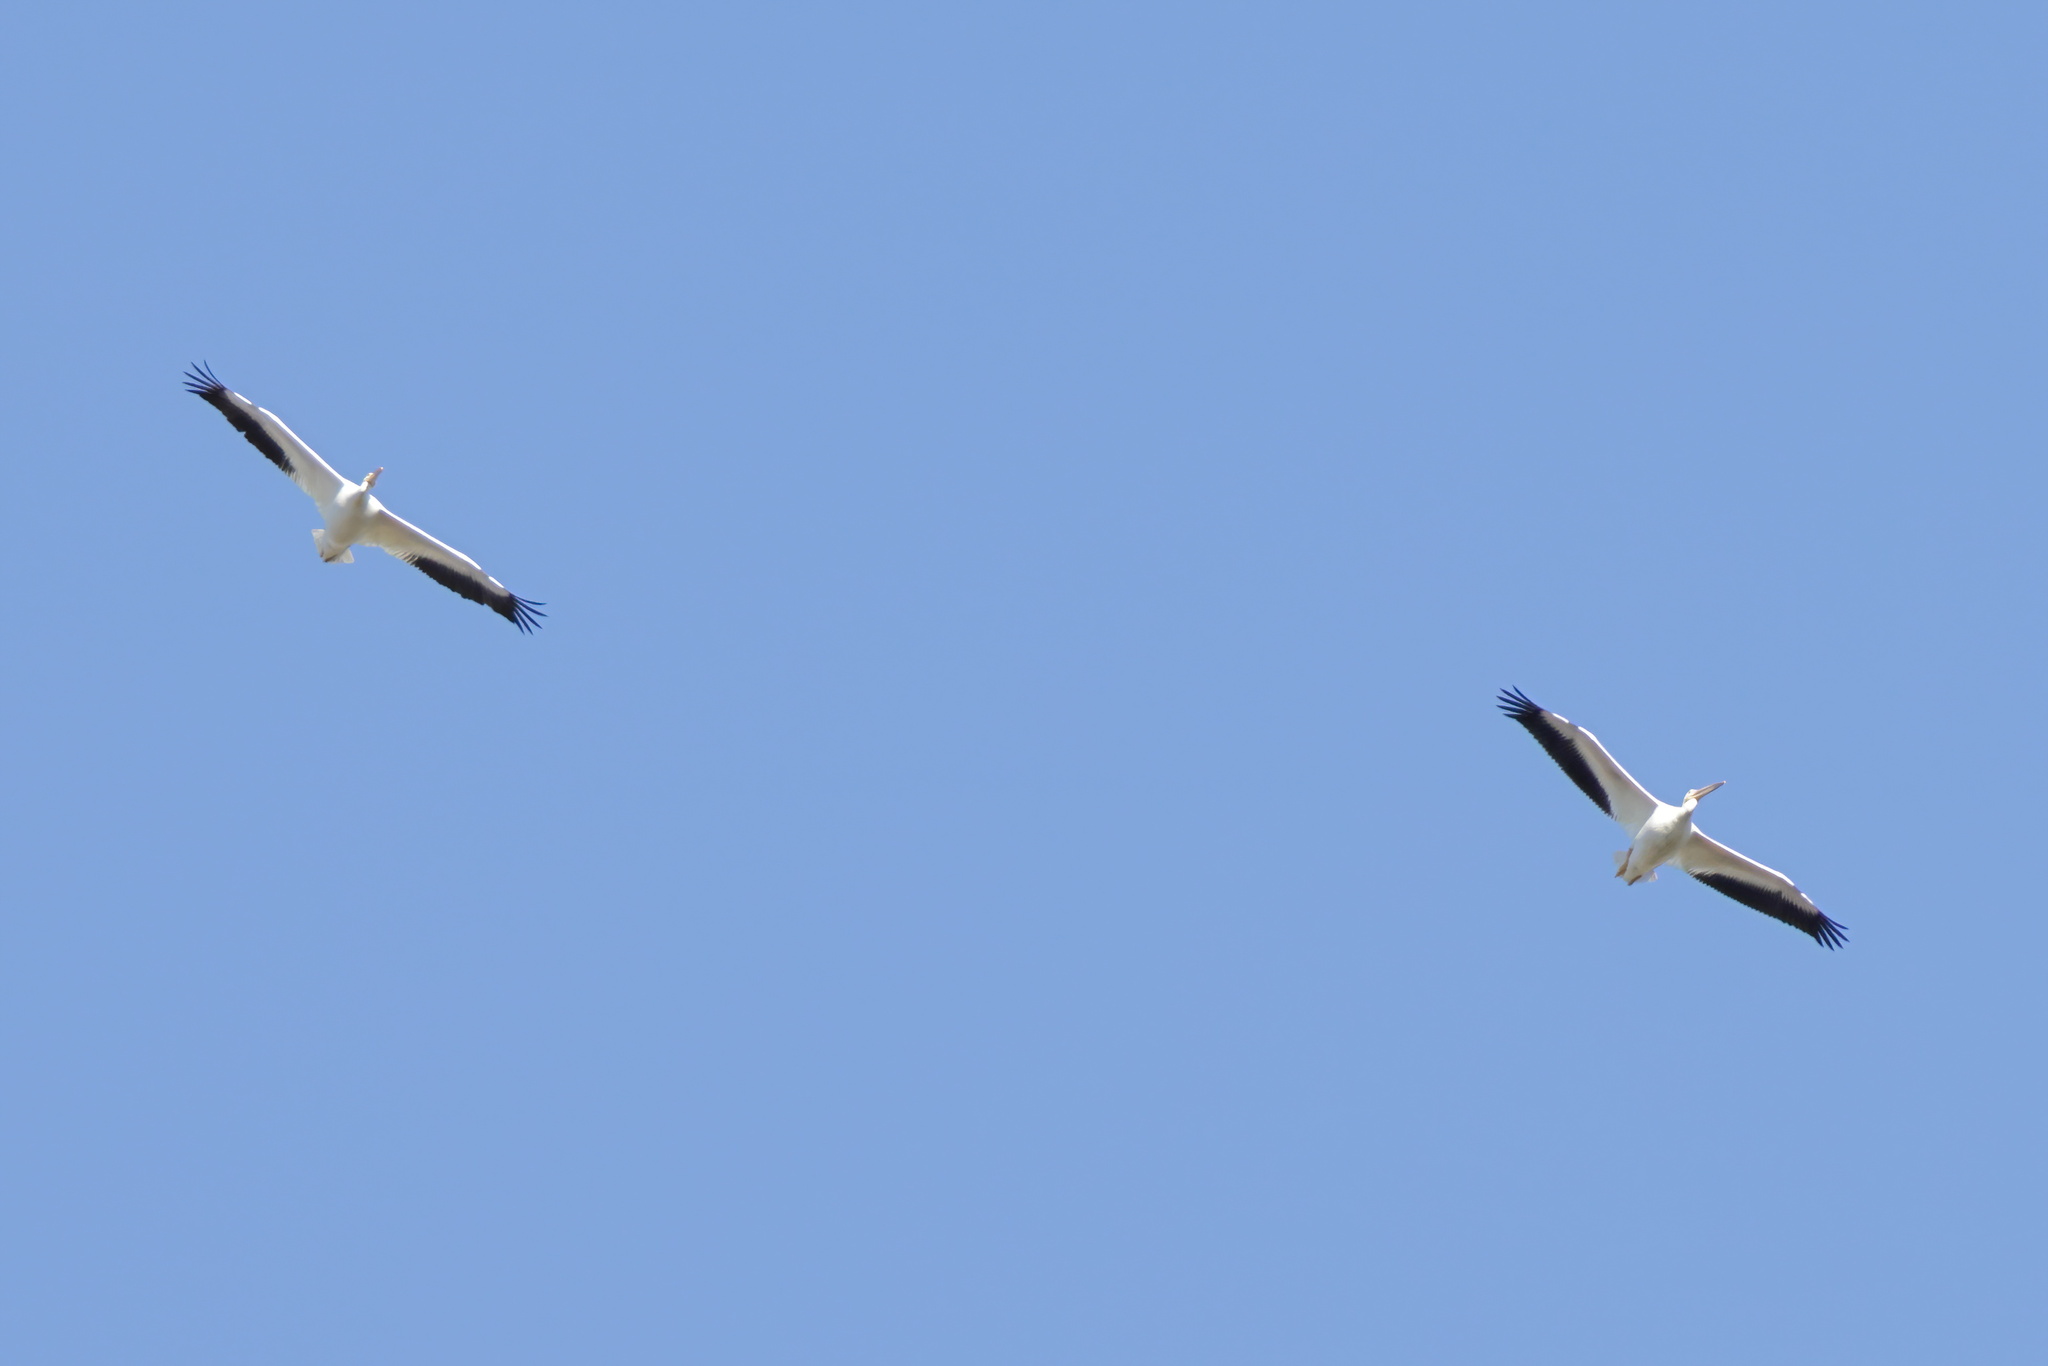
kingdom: Animalia
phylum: Chordata
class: Aves
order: Pelecaniformes
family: Pelecanidae
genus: Pelecanus
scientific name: Pelecanus erythrorhynchos
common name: American white pelican
